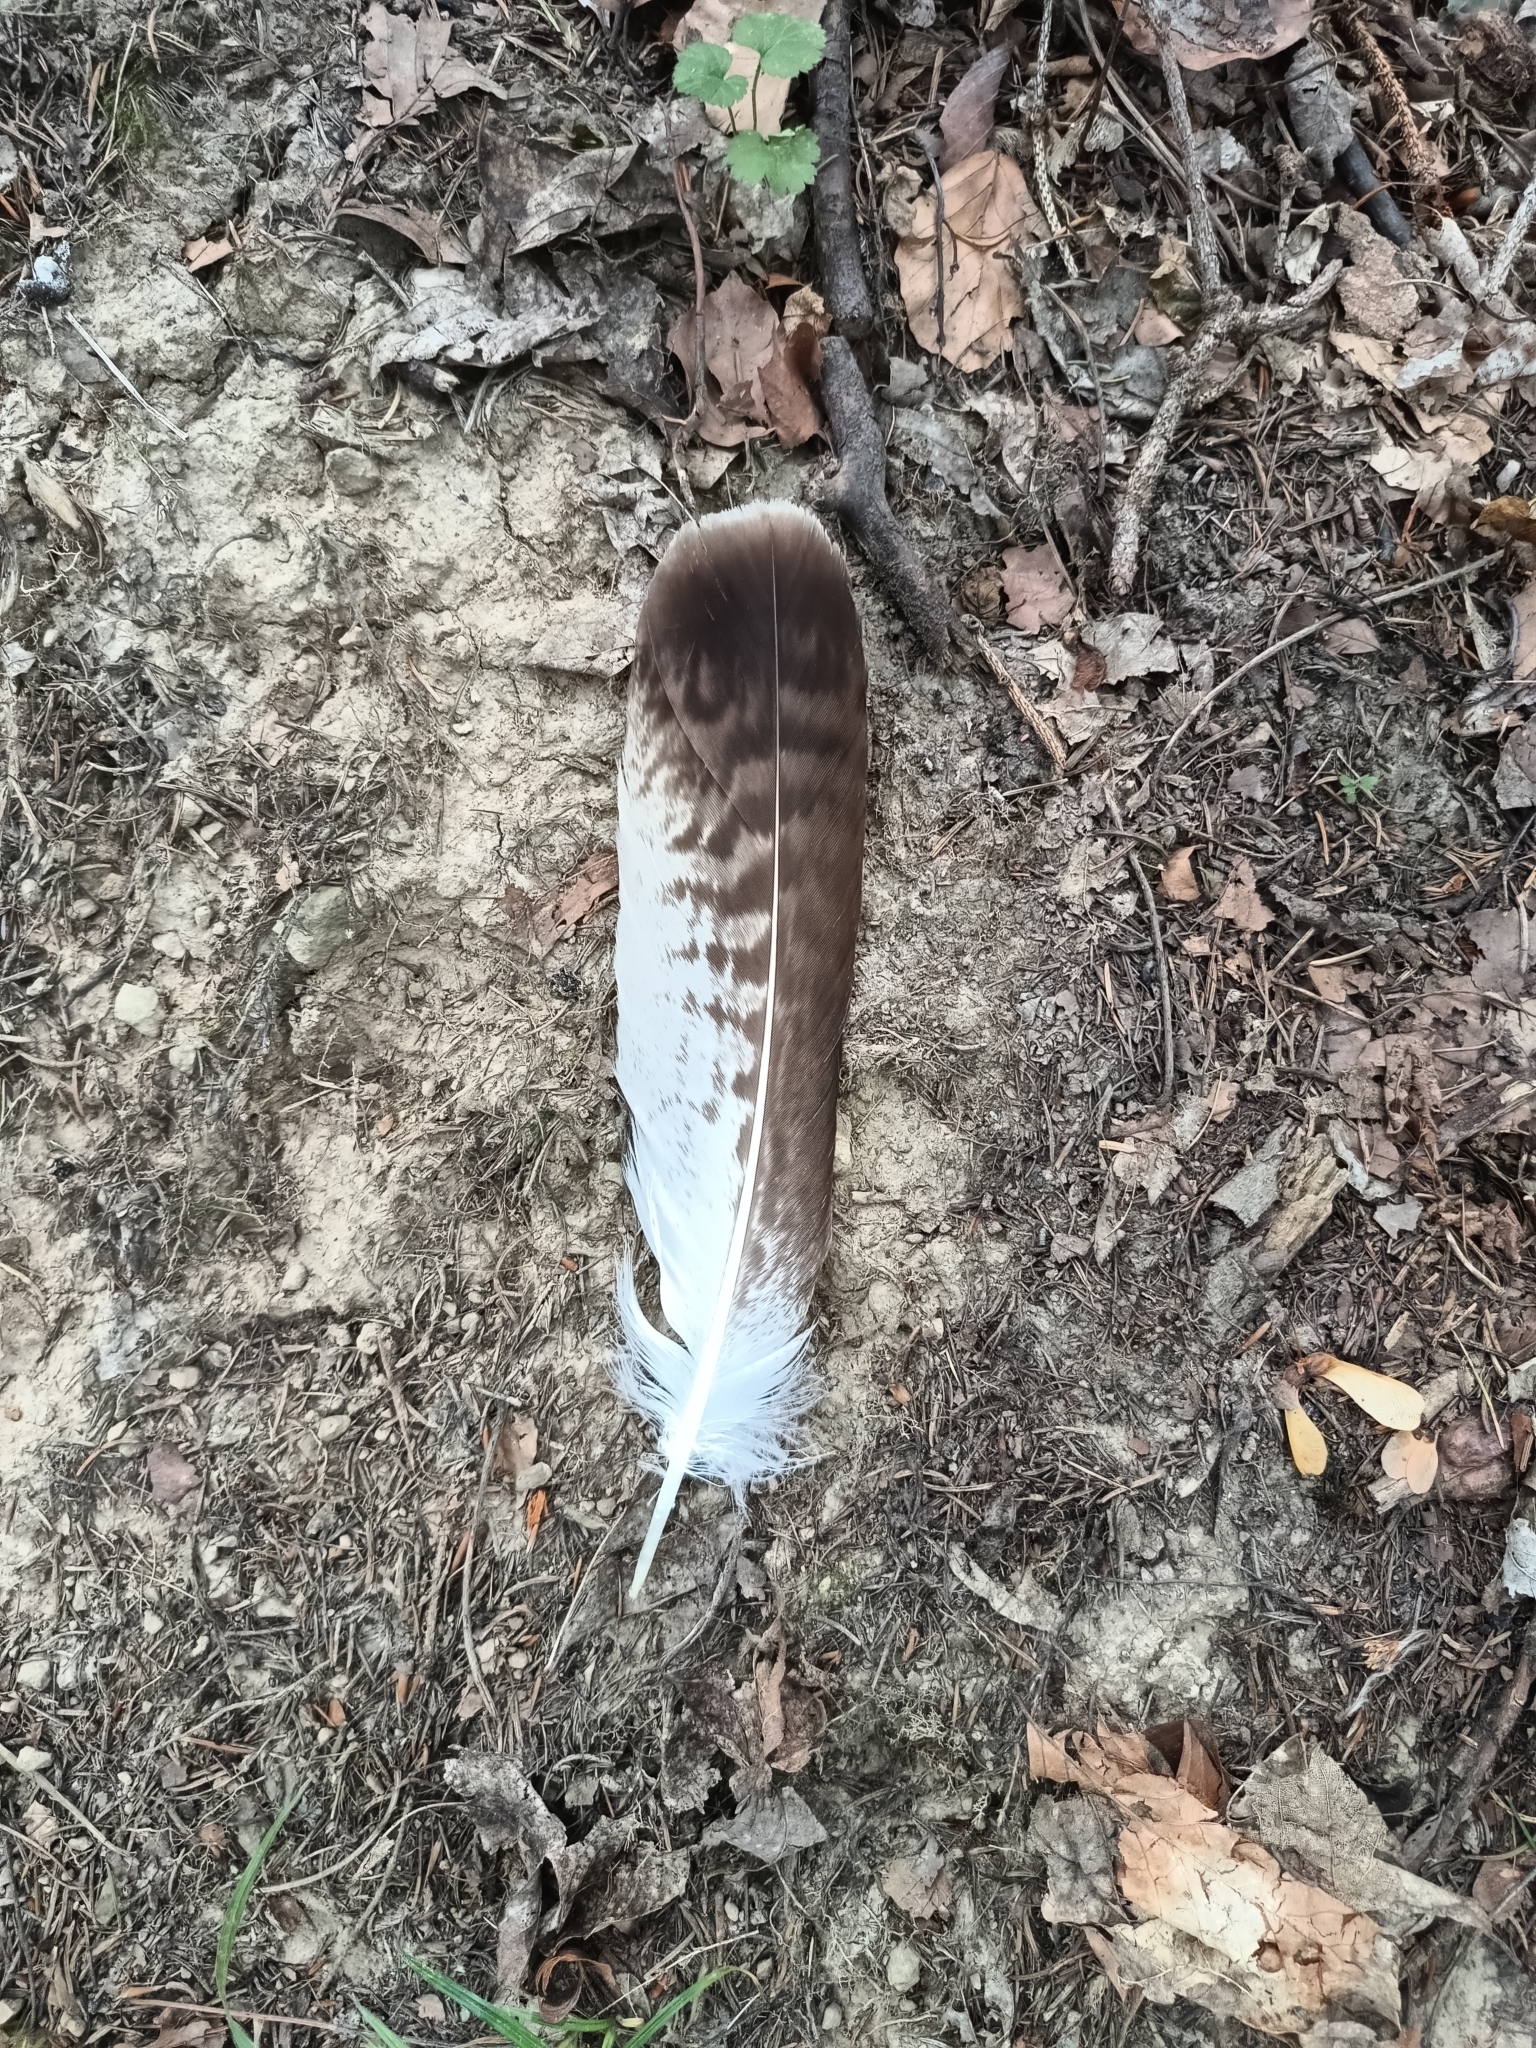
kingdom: Animalia
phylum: Chordata
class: Aves
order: Accipitriformes
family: Accipitridae
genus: Buteo
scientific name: Buteo buteo
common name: Common buzzard
